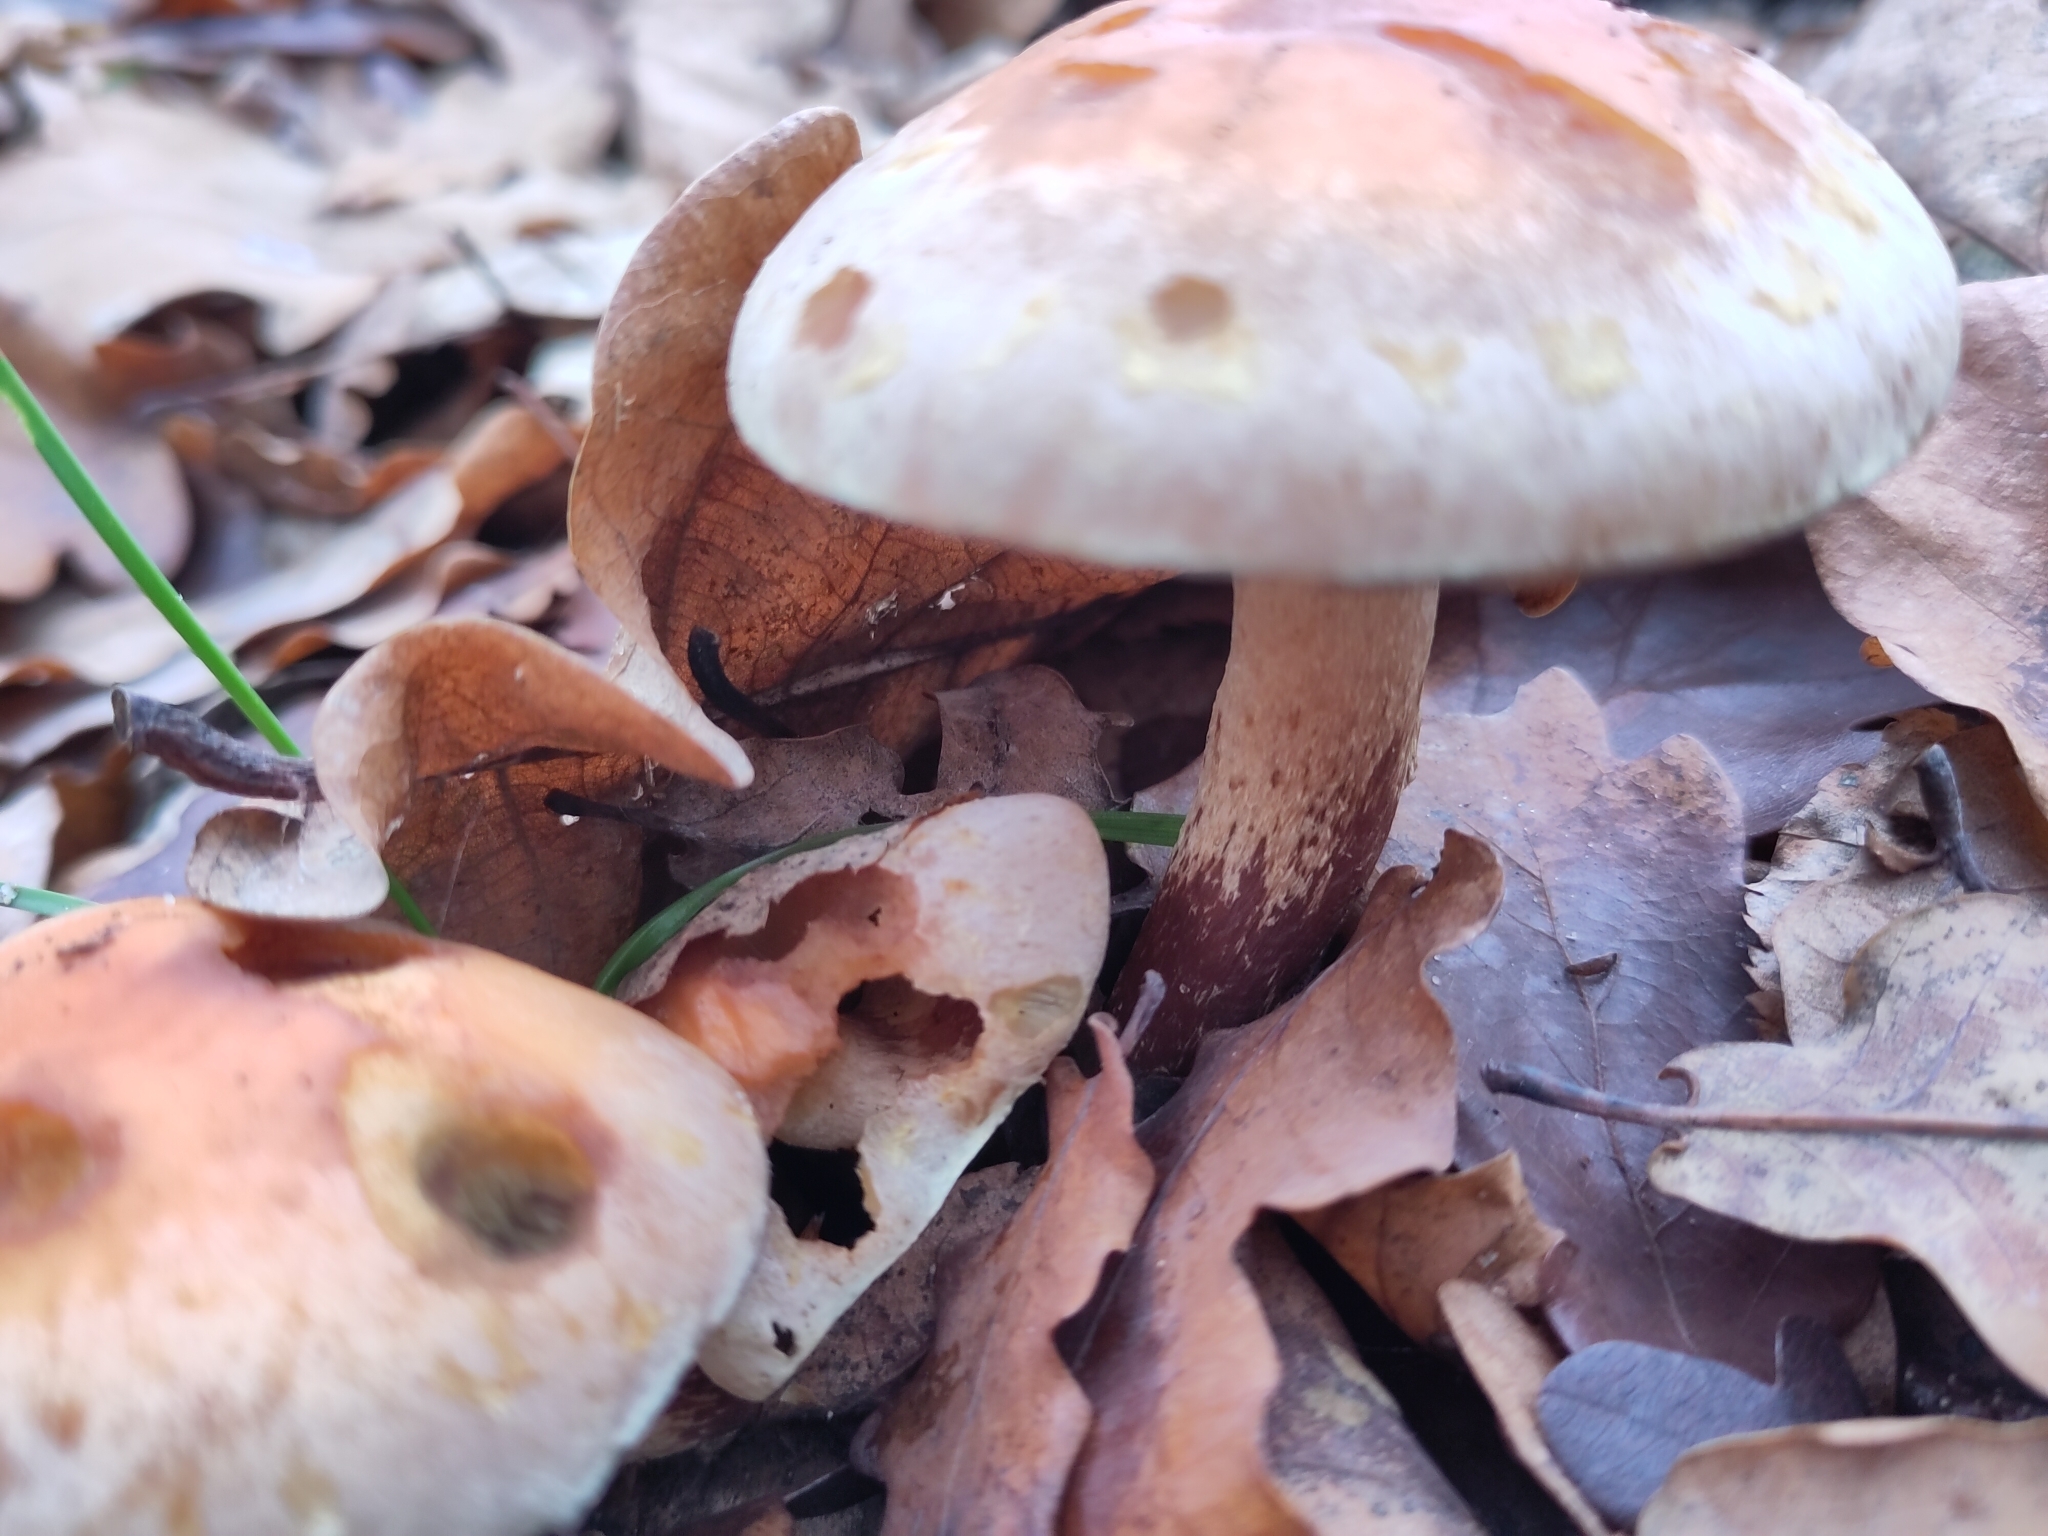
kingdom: Fungi
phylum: Basidiomycota
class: Agaricomycetes
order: Agaricales
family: Strophariaceae
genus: Hypholoma
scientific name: Hypholoma lateritium
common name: Brick caps
